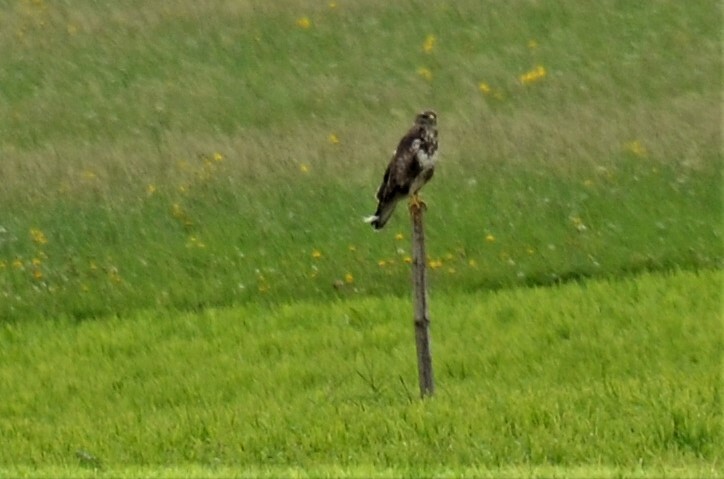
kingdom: Animalia
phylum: Chordata
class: Aves
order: Accipitriformes
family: Accipitridae
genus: Buteo
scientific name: Buteo buteo
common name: Common buzzard
